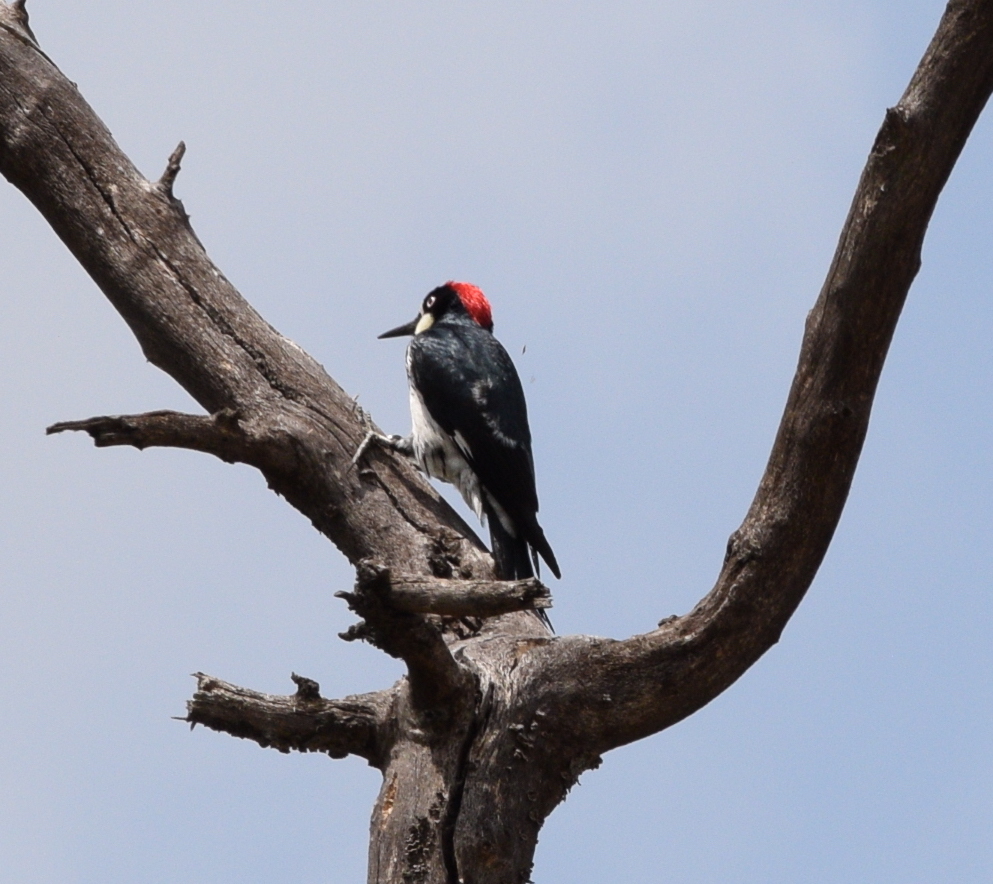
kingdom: Animalia
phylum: Chordata
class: Aves
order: Piciformes
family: Picidae
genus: Melanerpes
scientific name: Melanerpes formicivorus
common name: Acorn woodpecker
